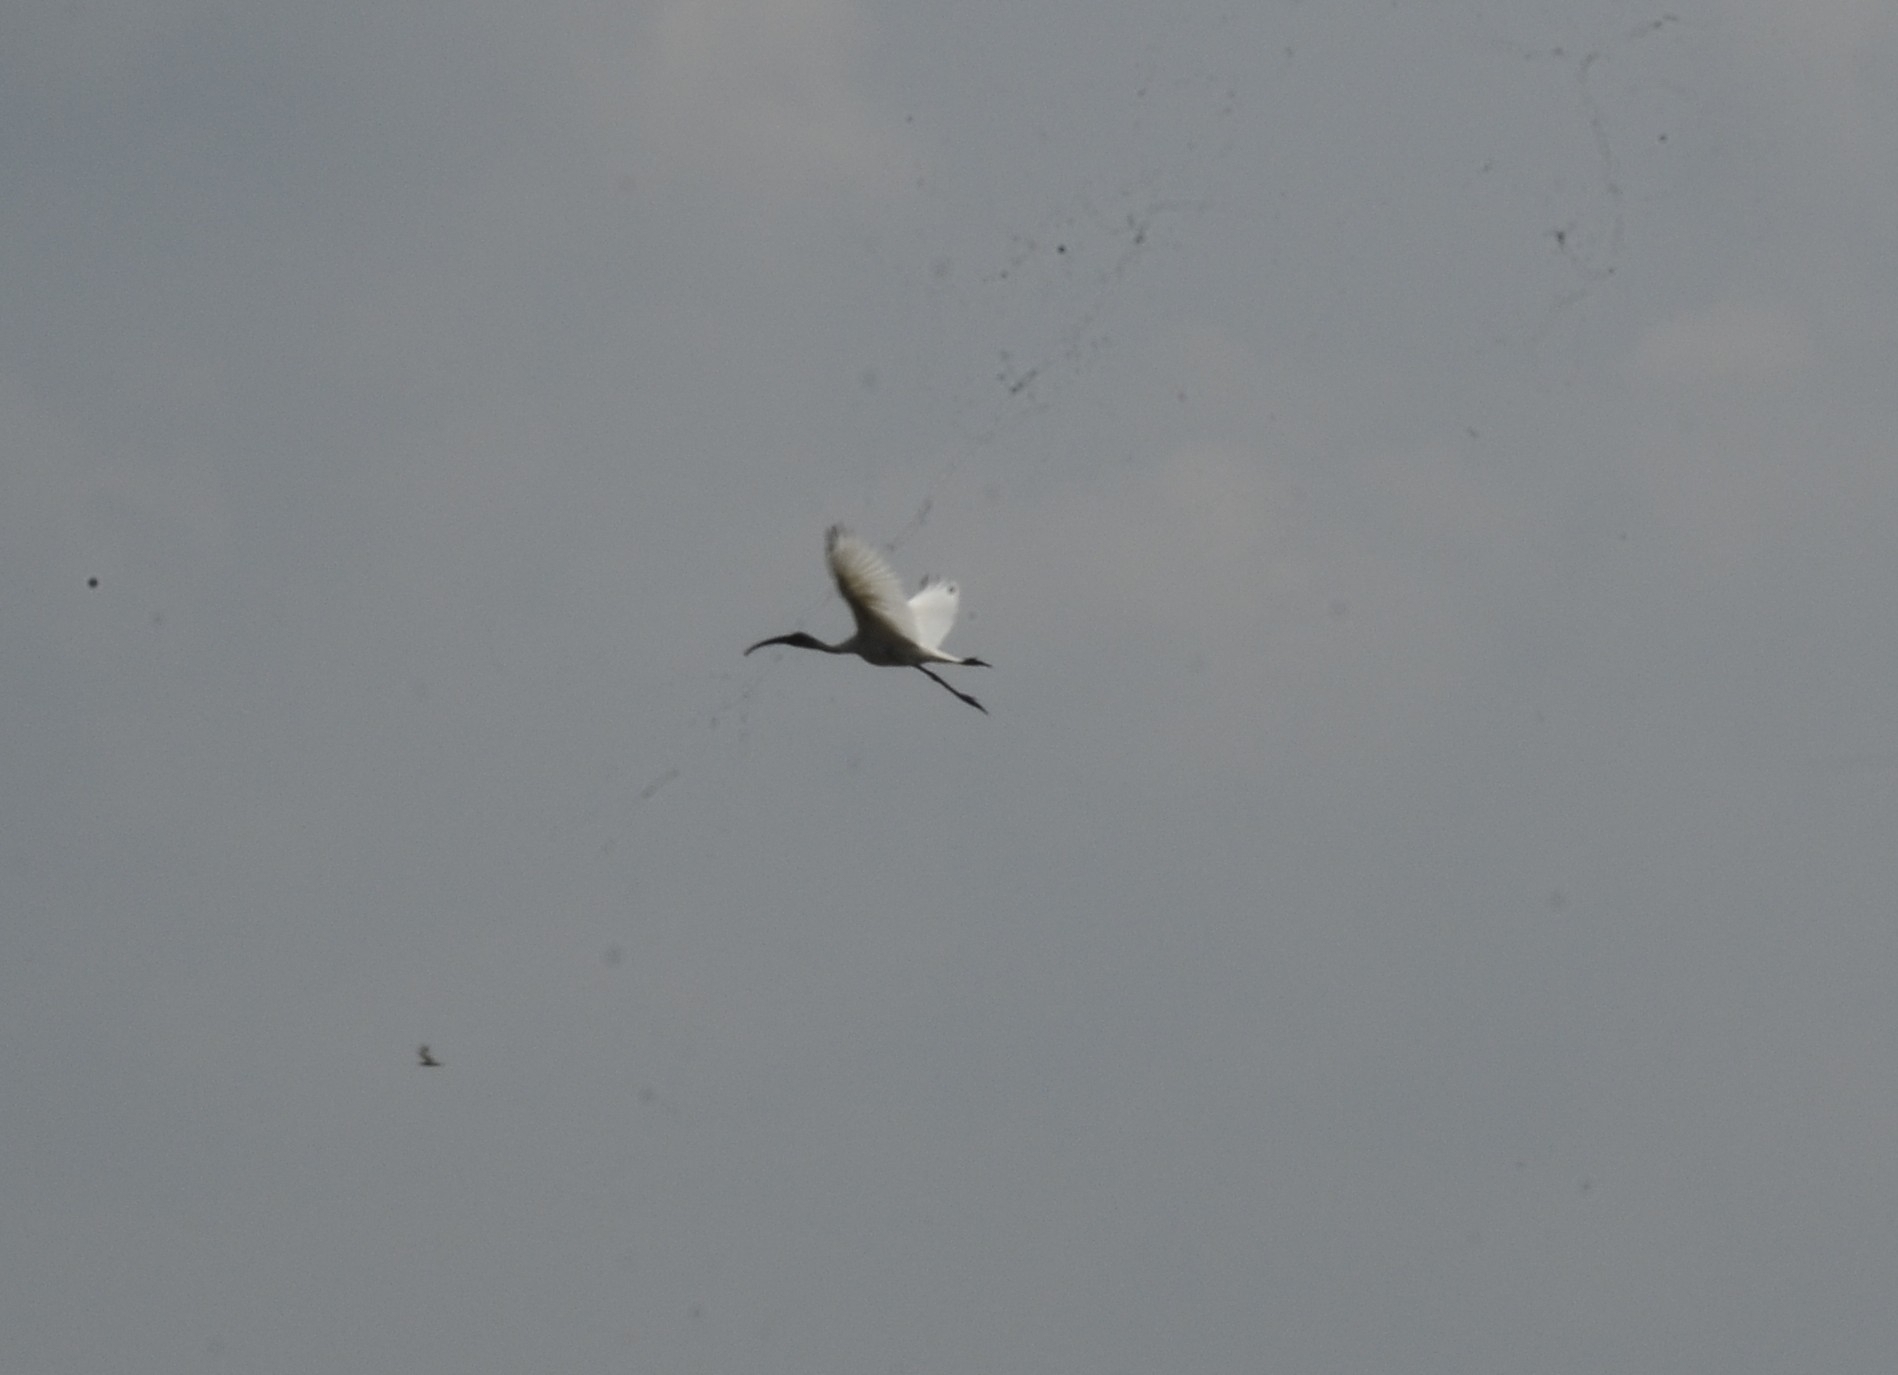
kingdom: Animalia
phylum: Chordata
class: Aves
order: Pelecaniformes
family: Threskiornithidae
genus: Threskiornis
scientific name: Threskiornis melanocephalus
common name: Black-headed ibis
